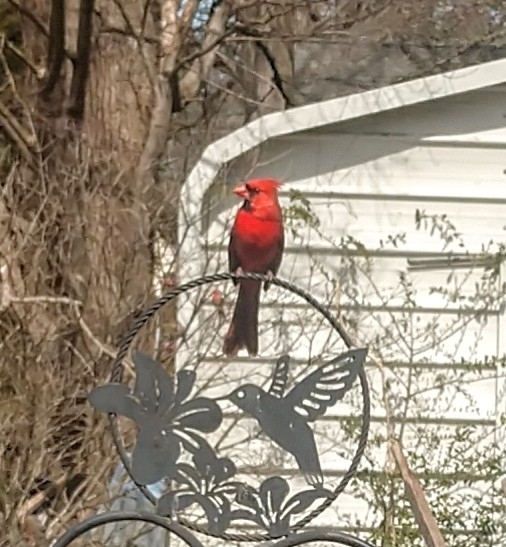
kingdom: Animalia
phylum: Chordata
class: Aves
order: Passeriformes
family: Cardinalidae
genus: Cardinalis
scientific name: Cardinalis cardinalis
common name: Northern cardinal
